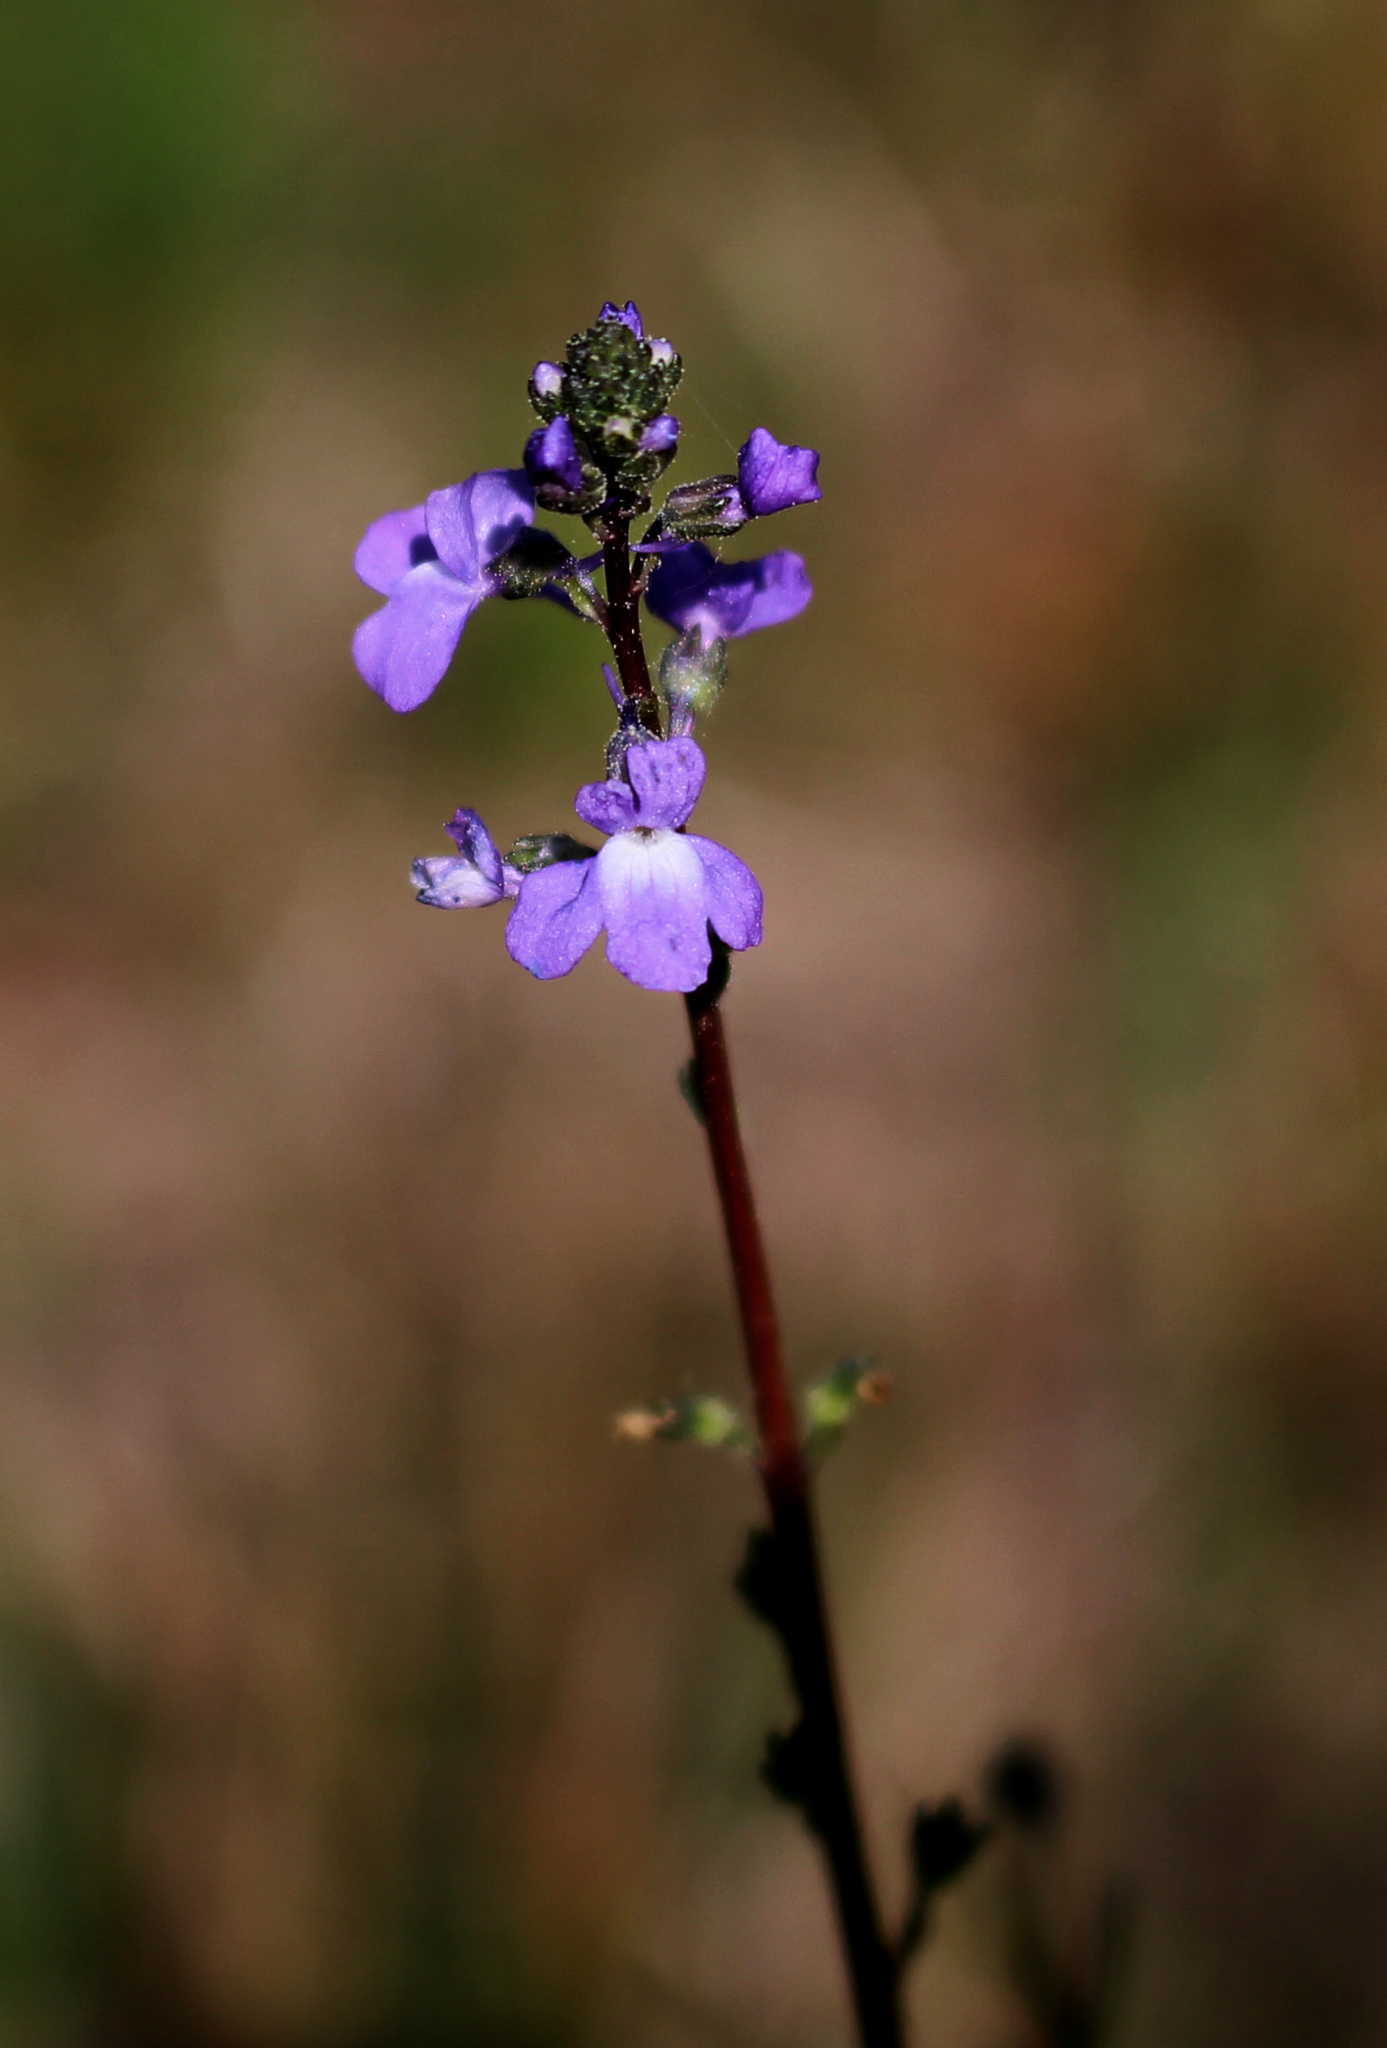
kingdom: Plantae
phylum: Tracheophyta
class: Magnoliopsida
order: Lamiales
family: Plantaginaceae
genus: Nuttallanthus
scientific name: Nuttallanthus canadensis
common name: Blue toadflax
